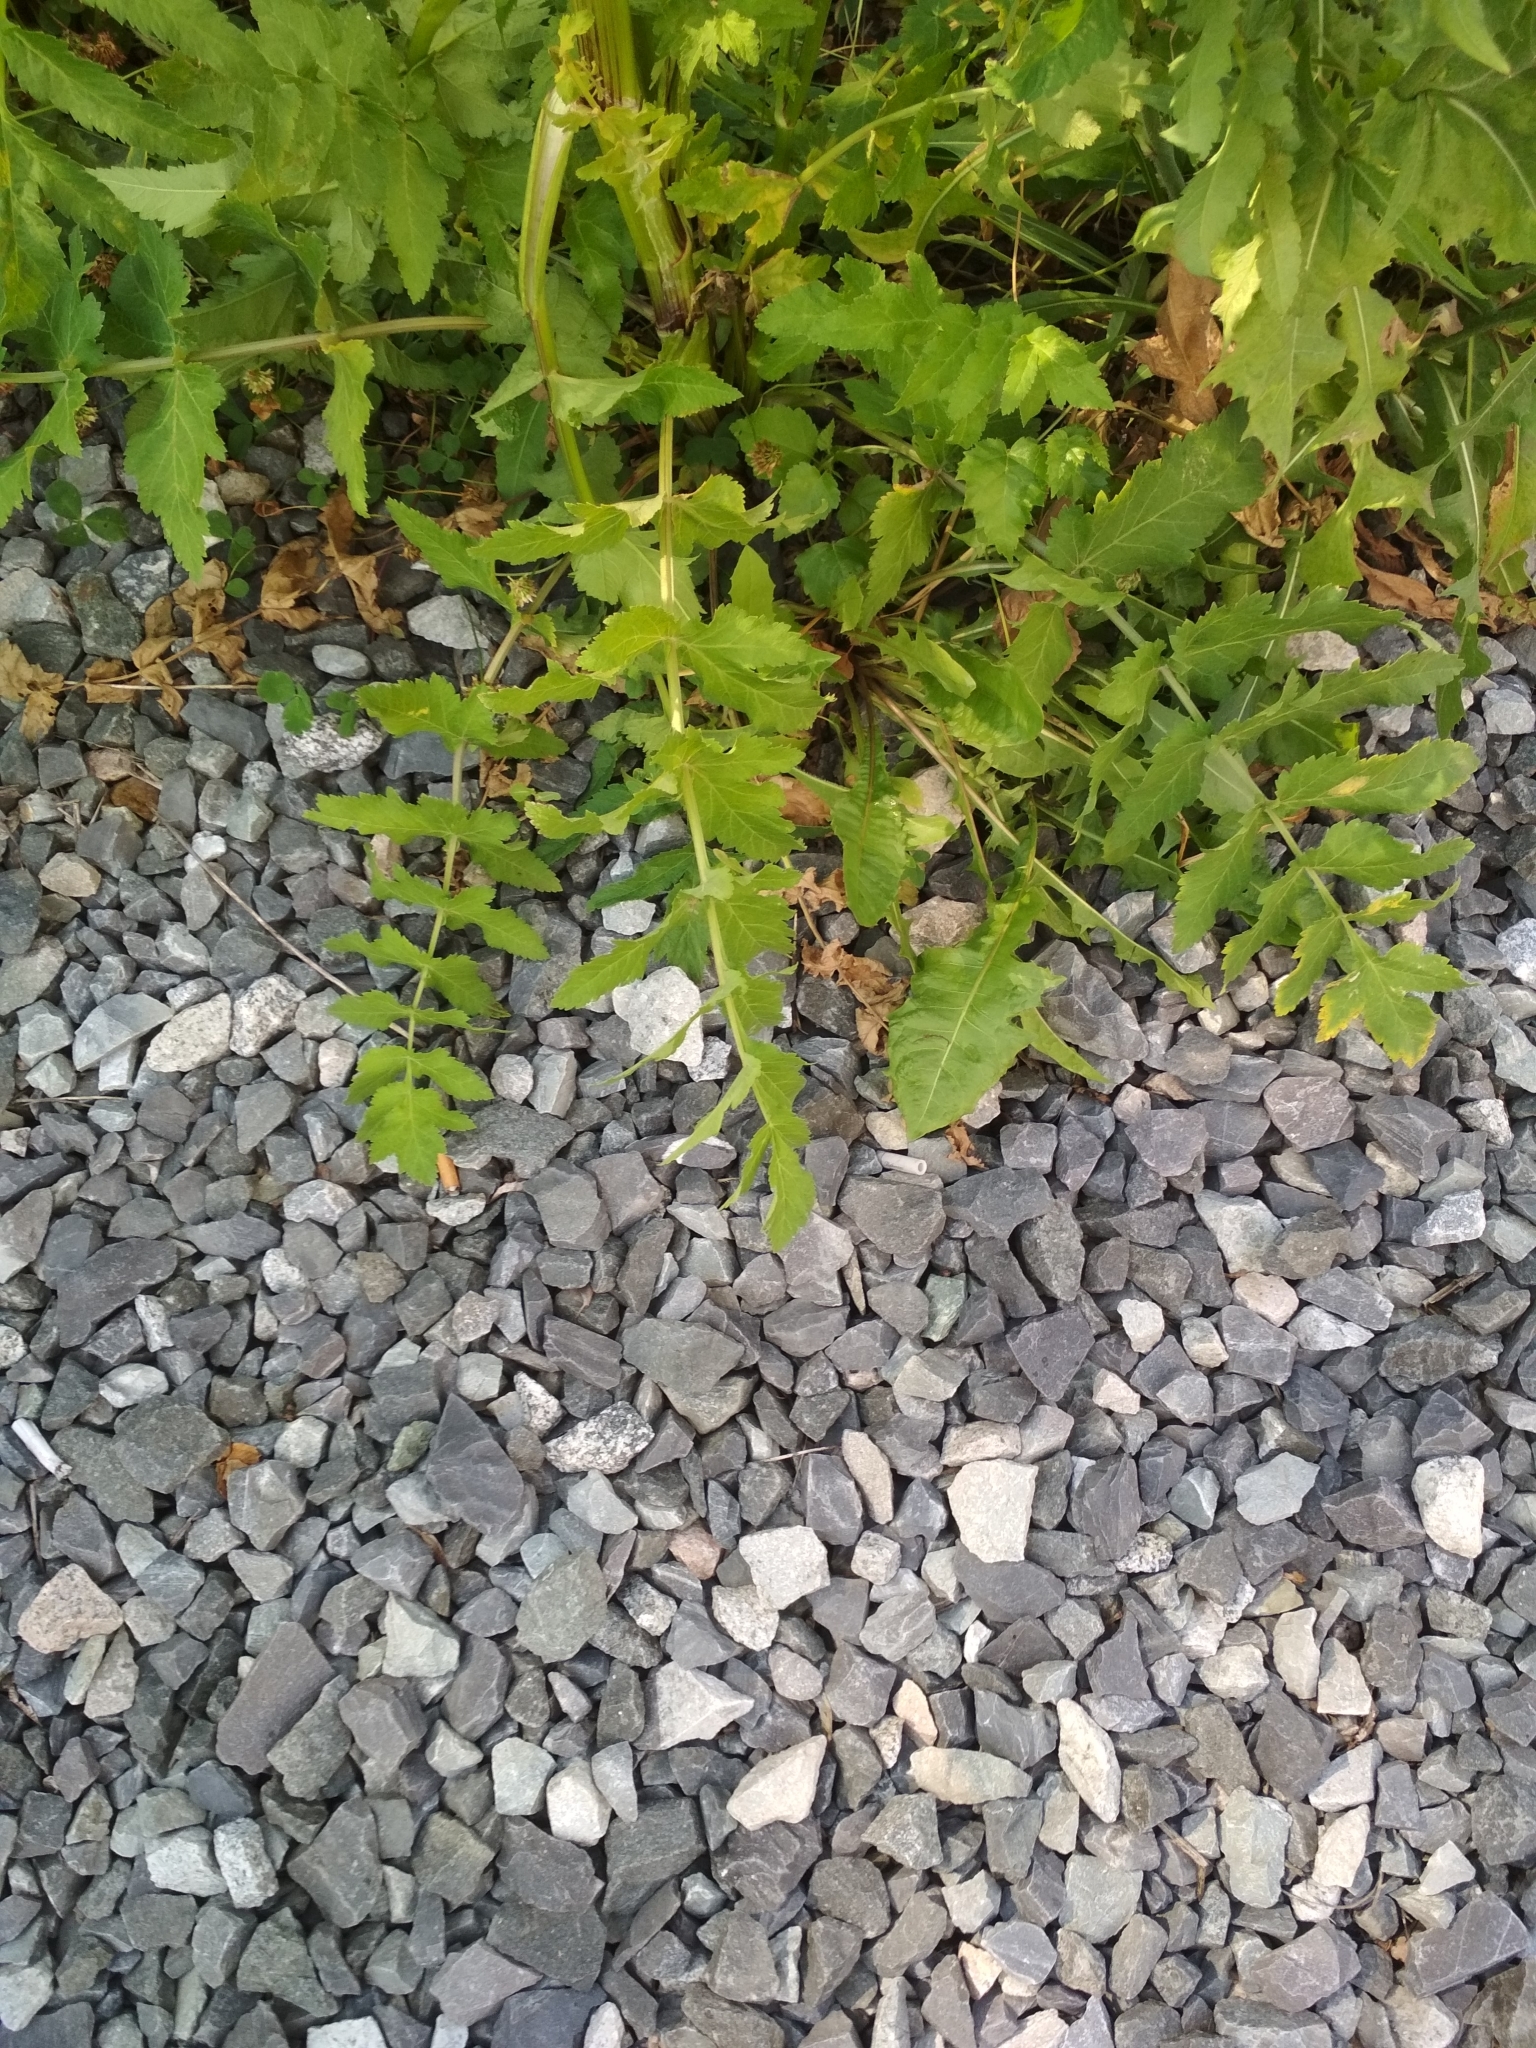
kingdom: Plantae
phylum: Tracheophyta
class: Magnoliopsida
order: Apiales
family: Apiaceae
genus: Pastinaca
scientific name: Pastinaca sativa
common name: Wild parsnip
